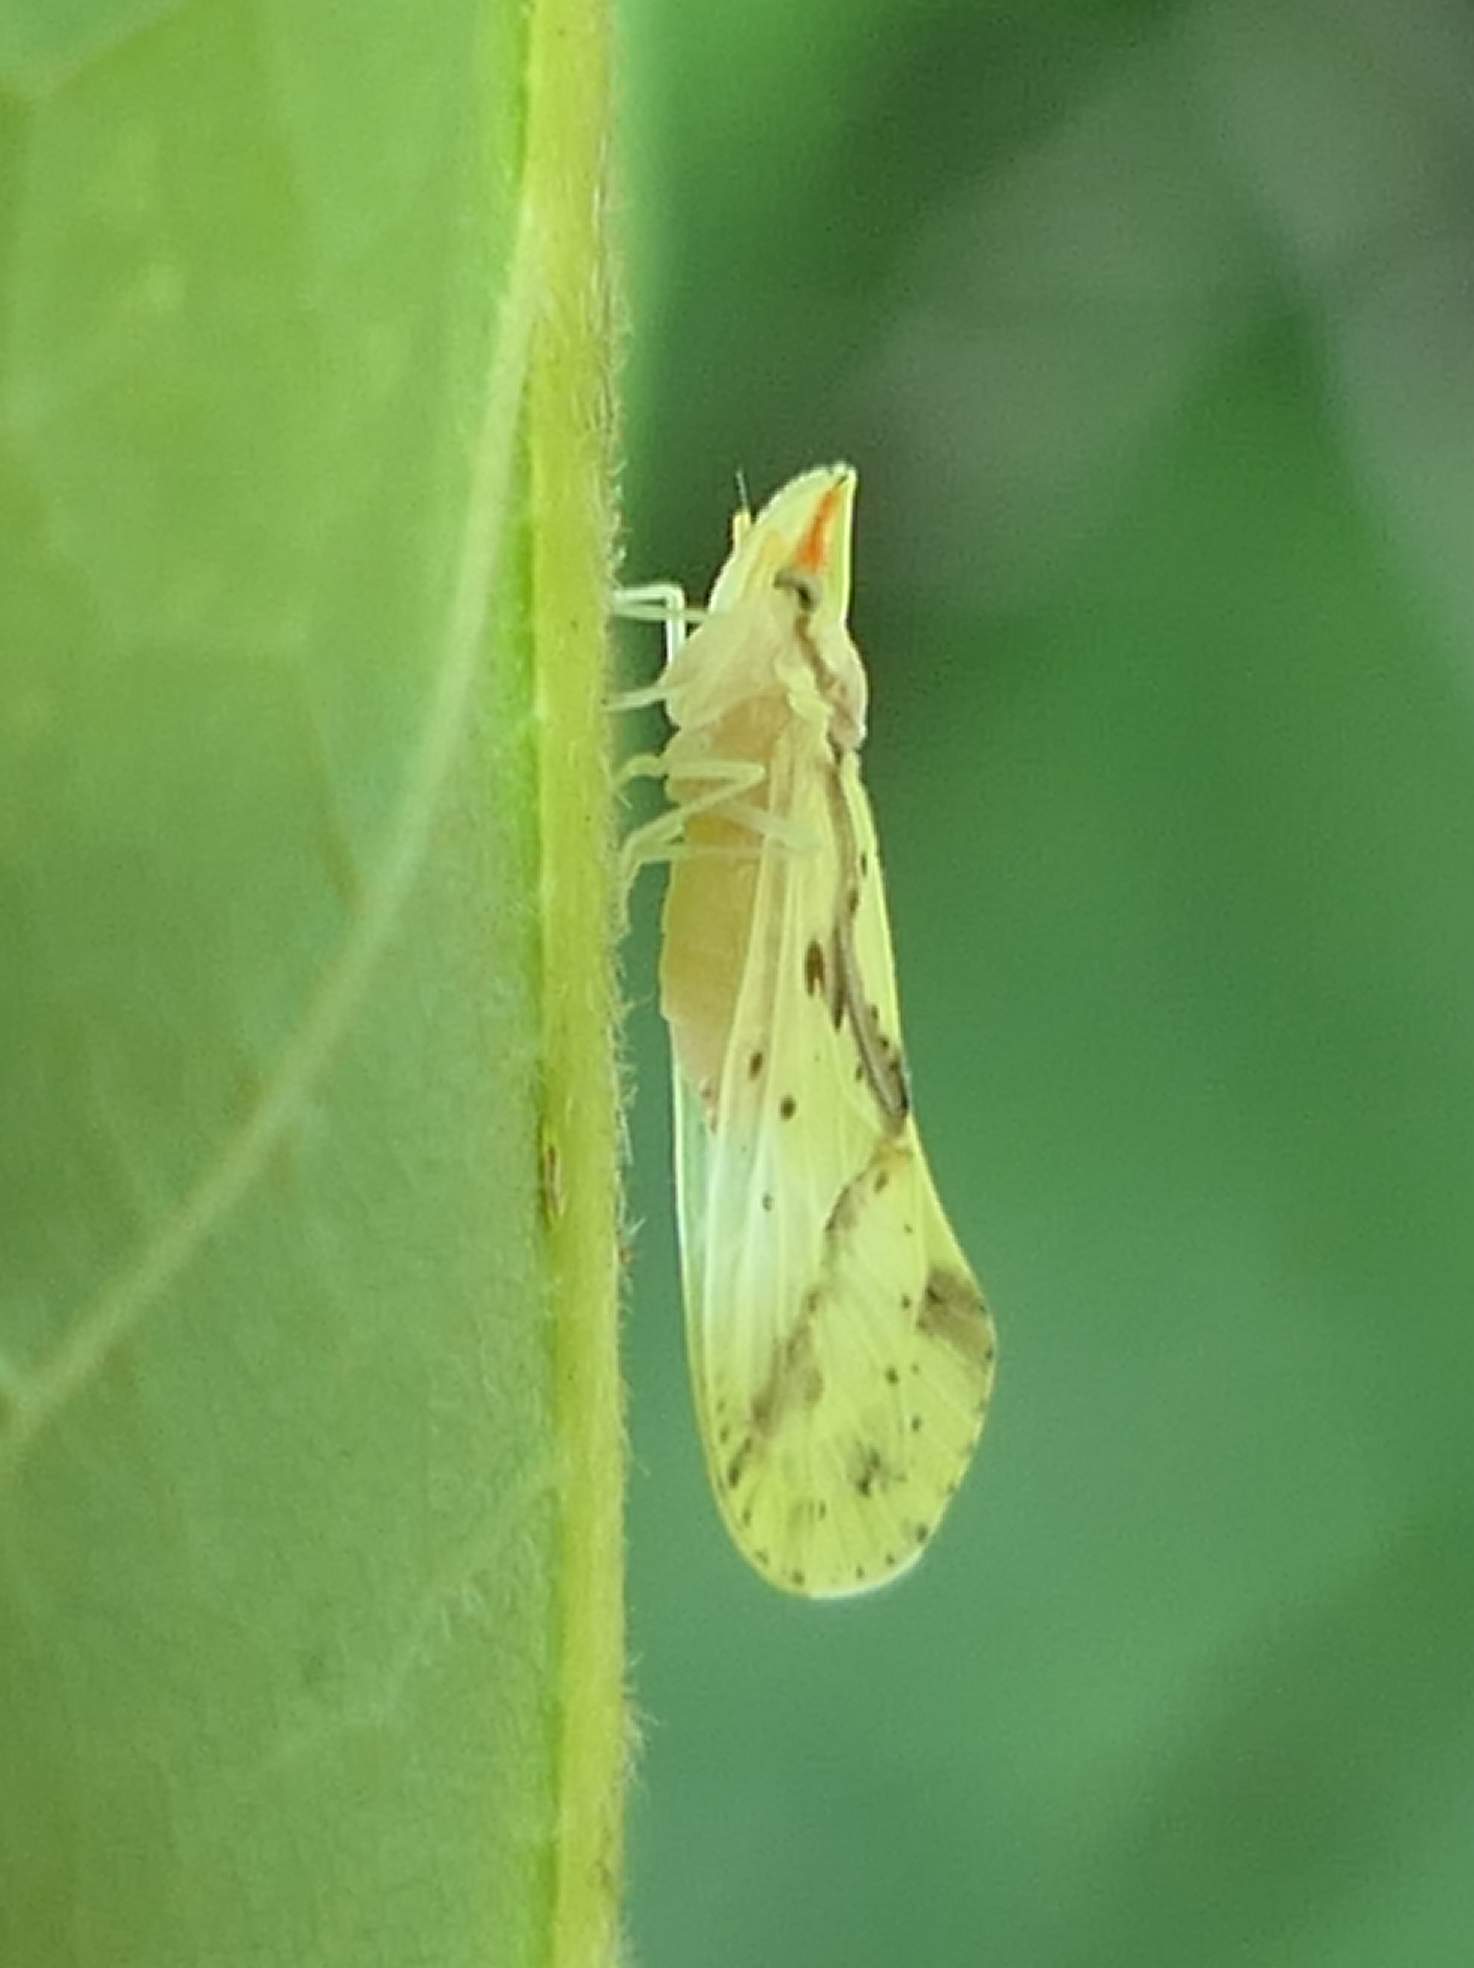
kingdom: Animalia
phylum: Arthropoda
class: Insecta
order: Hemiptera
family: Derbidae
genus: Otiocerus
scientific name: Otiocerus wolfii
